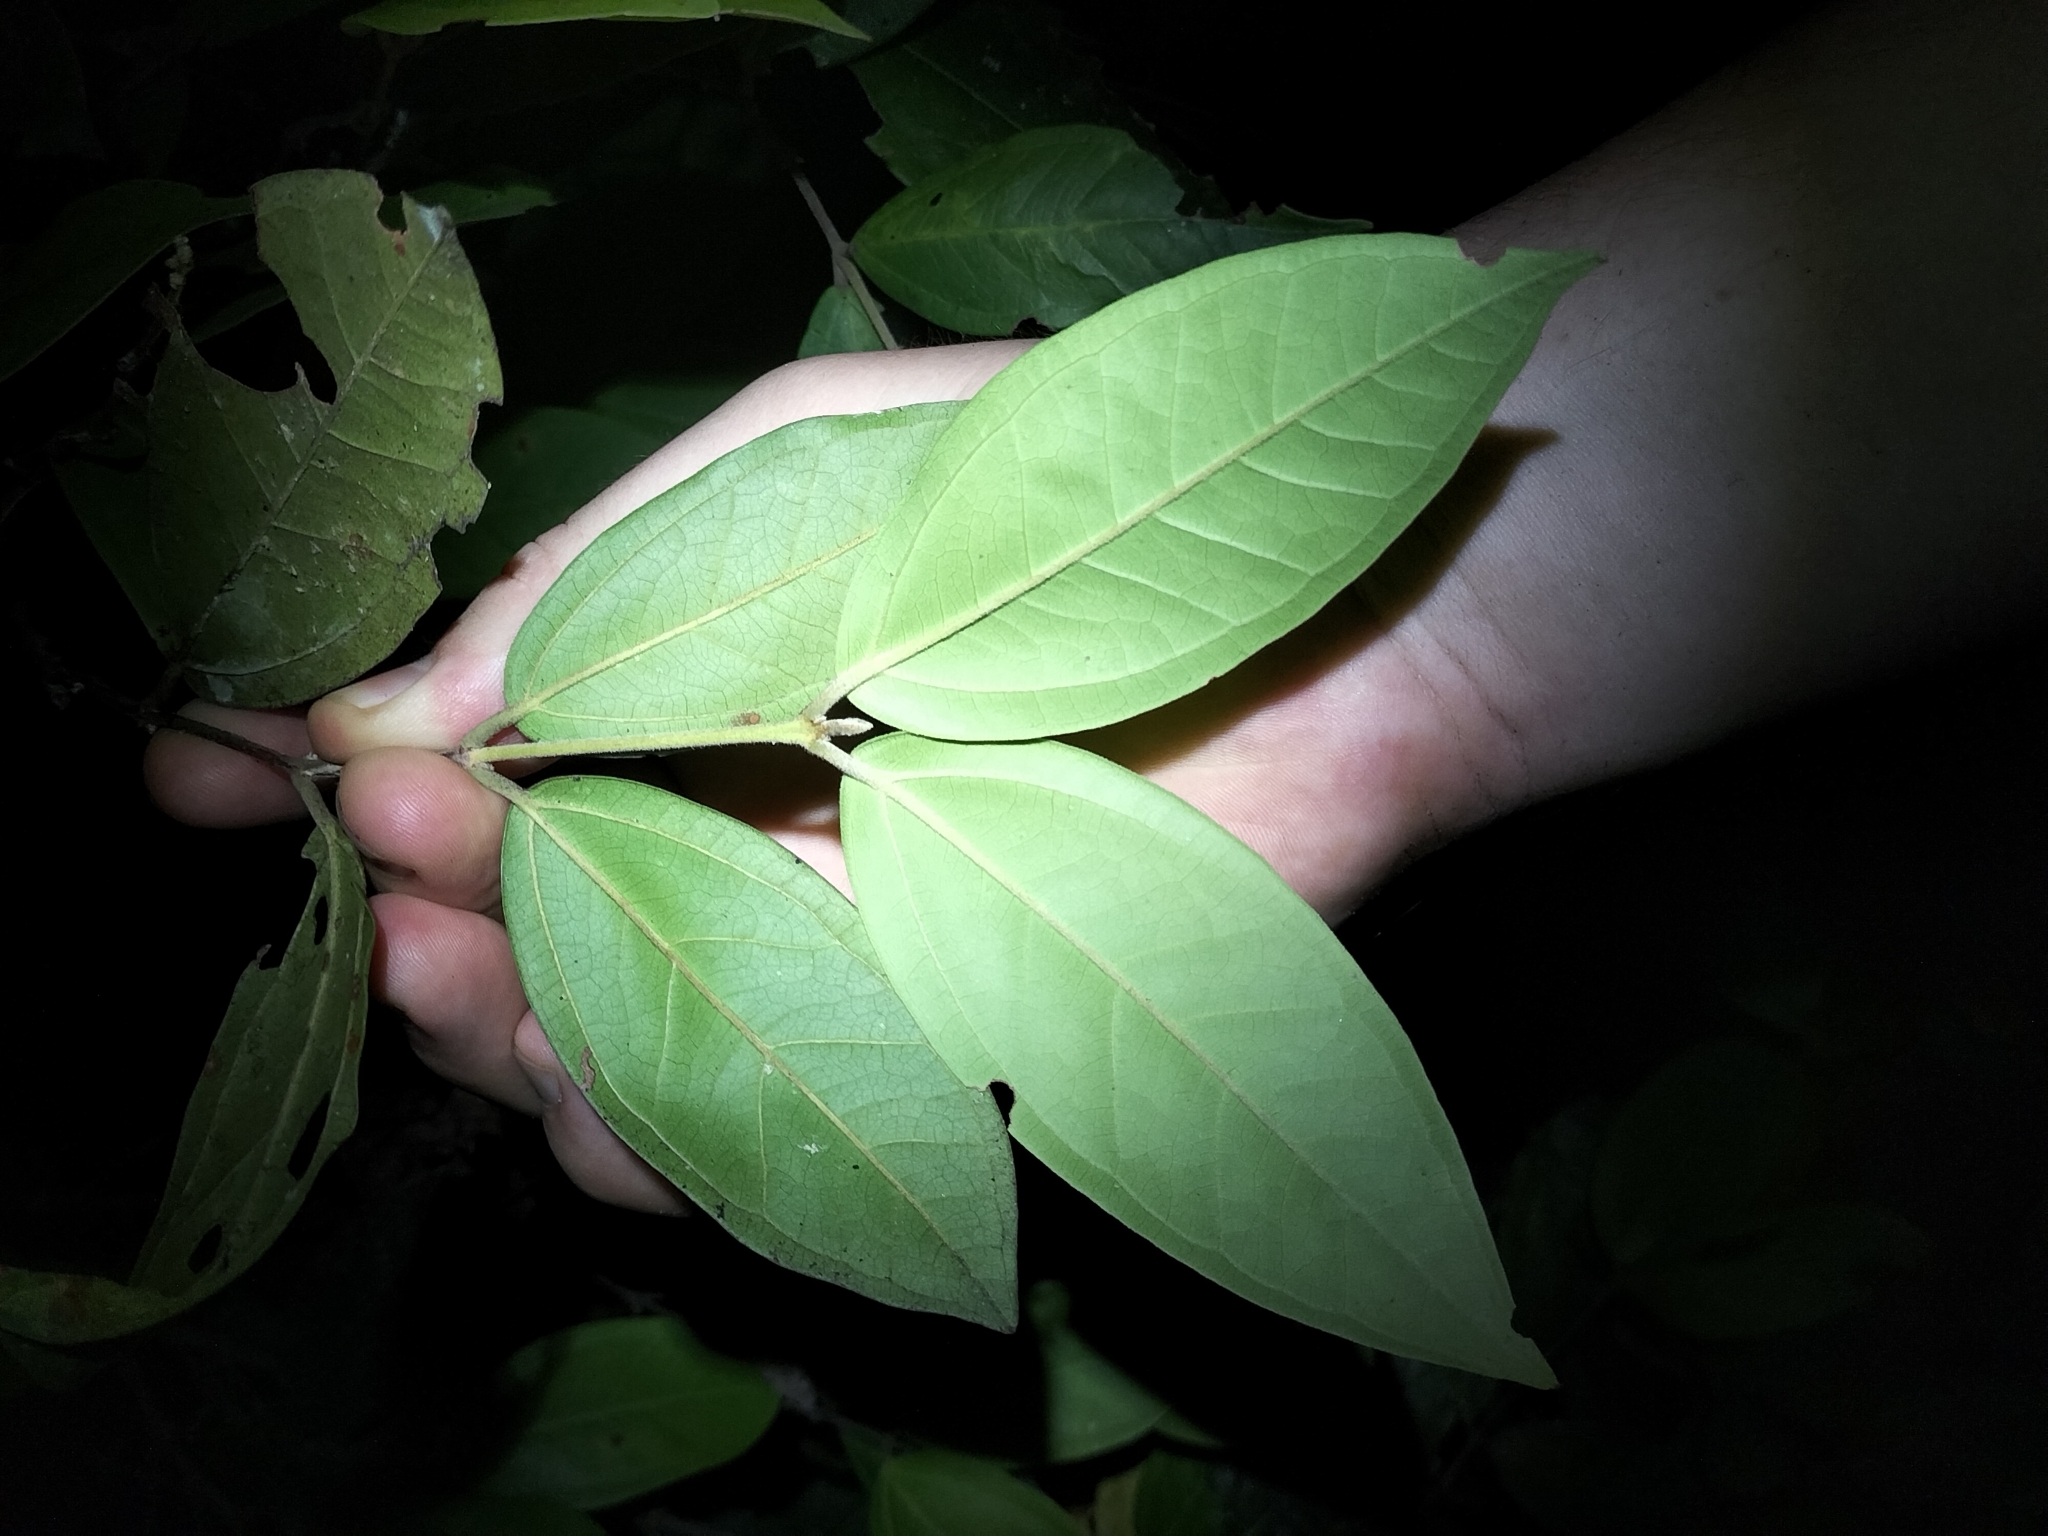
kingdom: Plantae
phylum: Tracheophyta
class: Magnoliopsida
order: Myrtales
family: Myrtaceae
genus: Rhodamnia
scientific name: Rhodamnia sessiliflora
